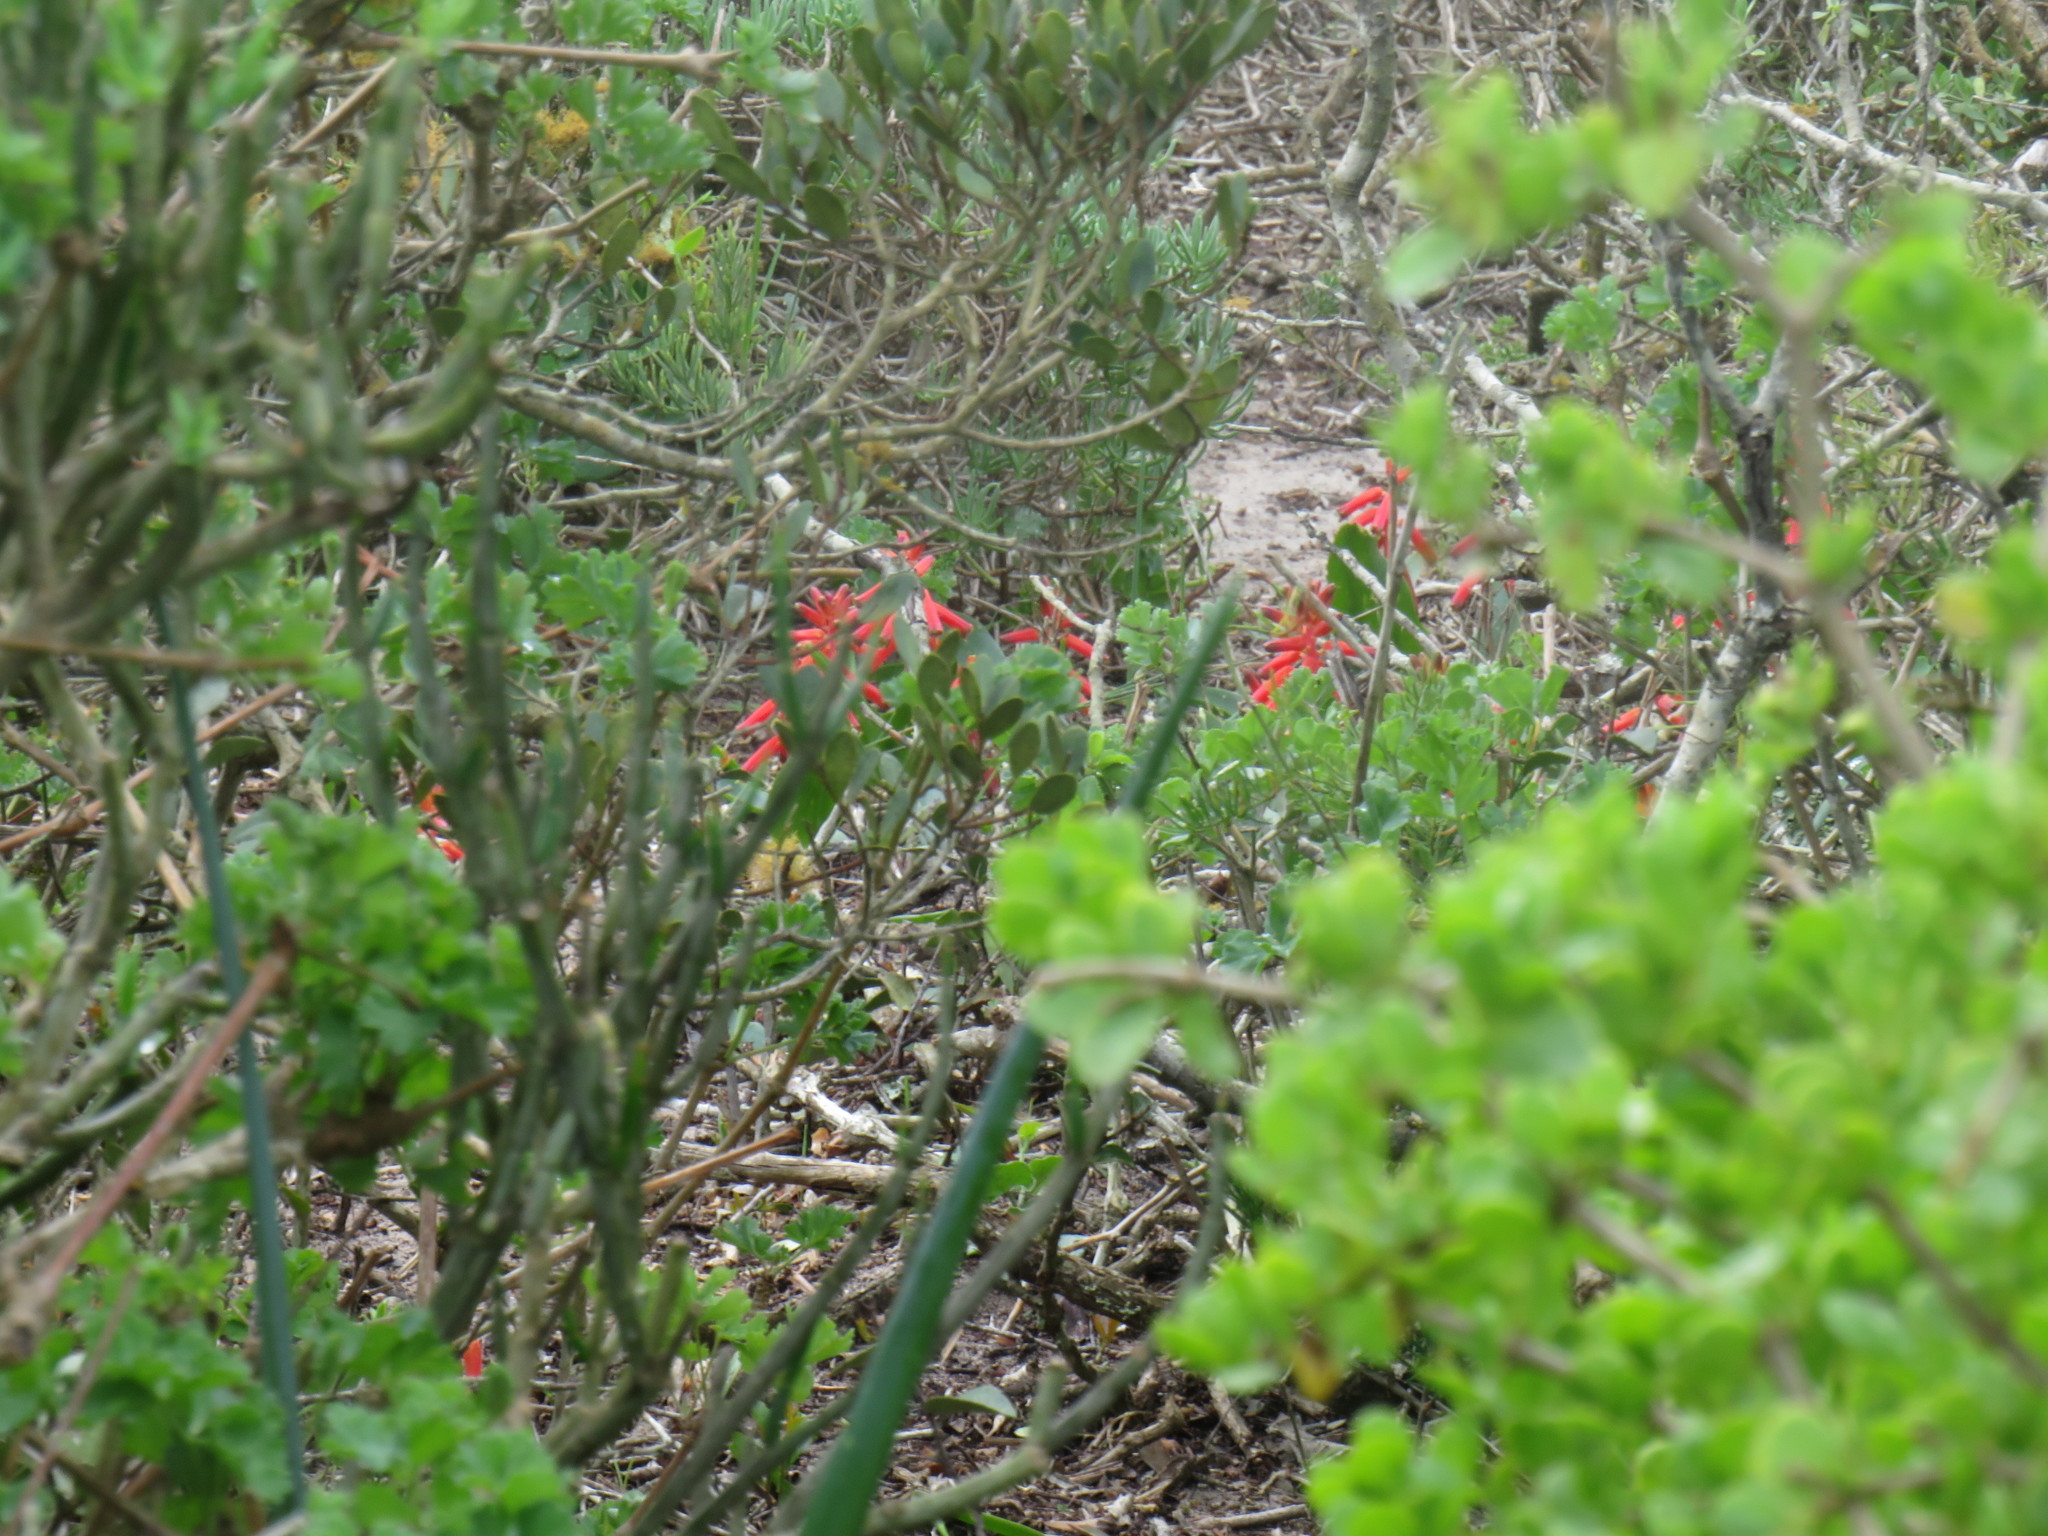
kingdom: Plantae
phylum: Tracheophyta
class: Liliopsida
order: Asparagales
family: Asparagaceae
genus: Lachenalia
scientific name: Lachenalia bulbifera
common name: Red lachenalia
